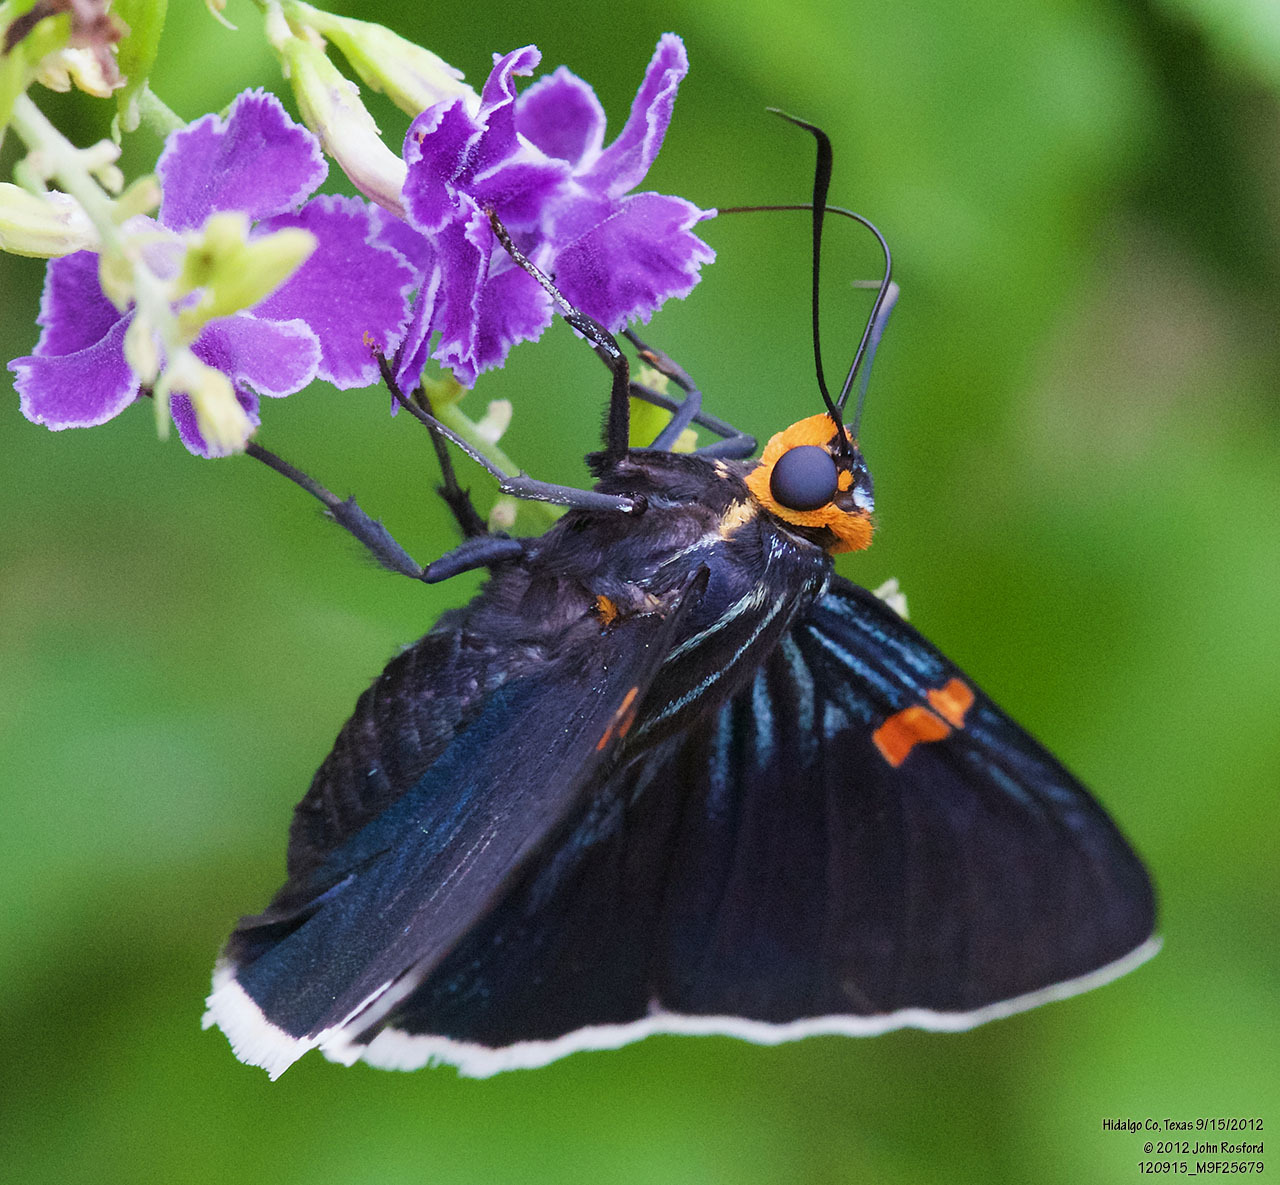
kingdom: Animalia
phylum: Arthropoda
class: Insecta
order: Lepidoptera
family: Hesperiidae
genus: Phocides
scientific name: Phocides lilea
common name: Guava skipper
